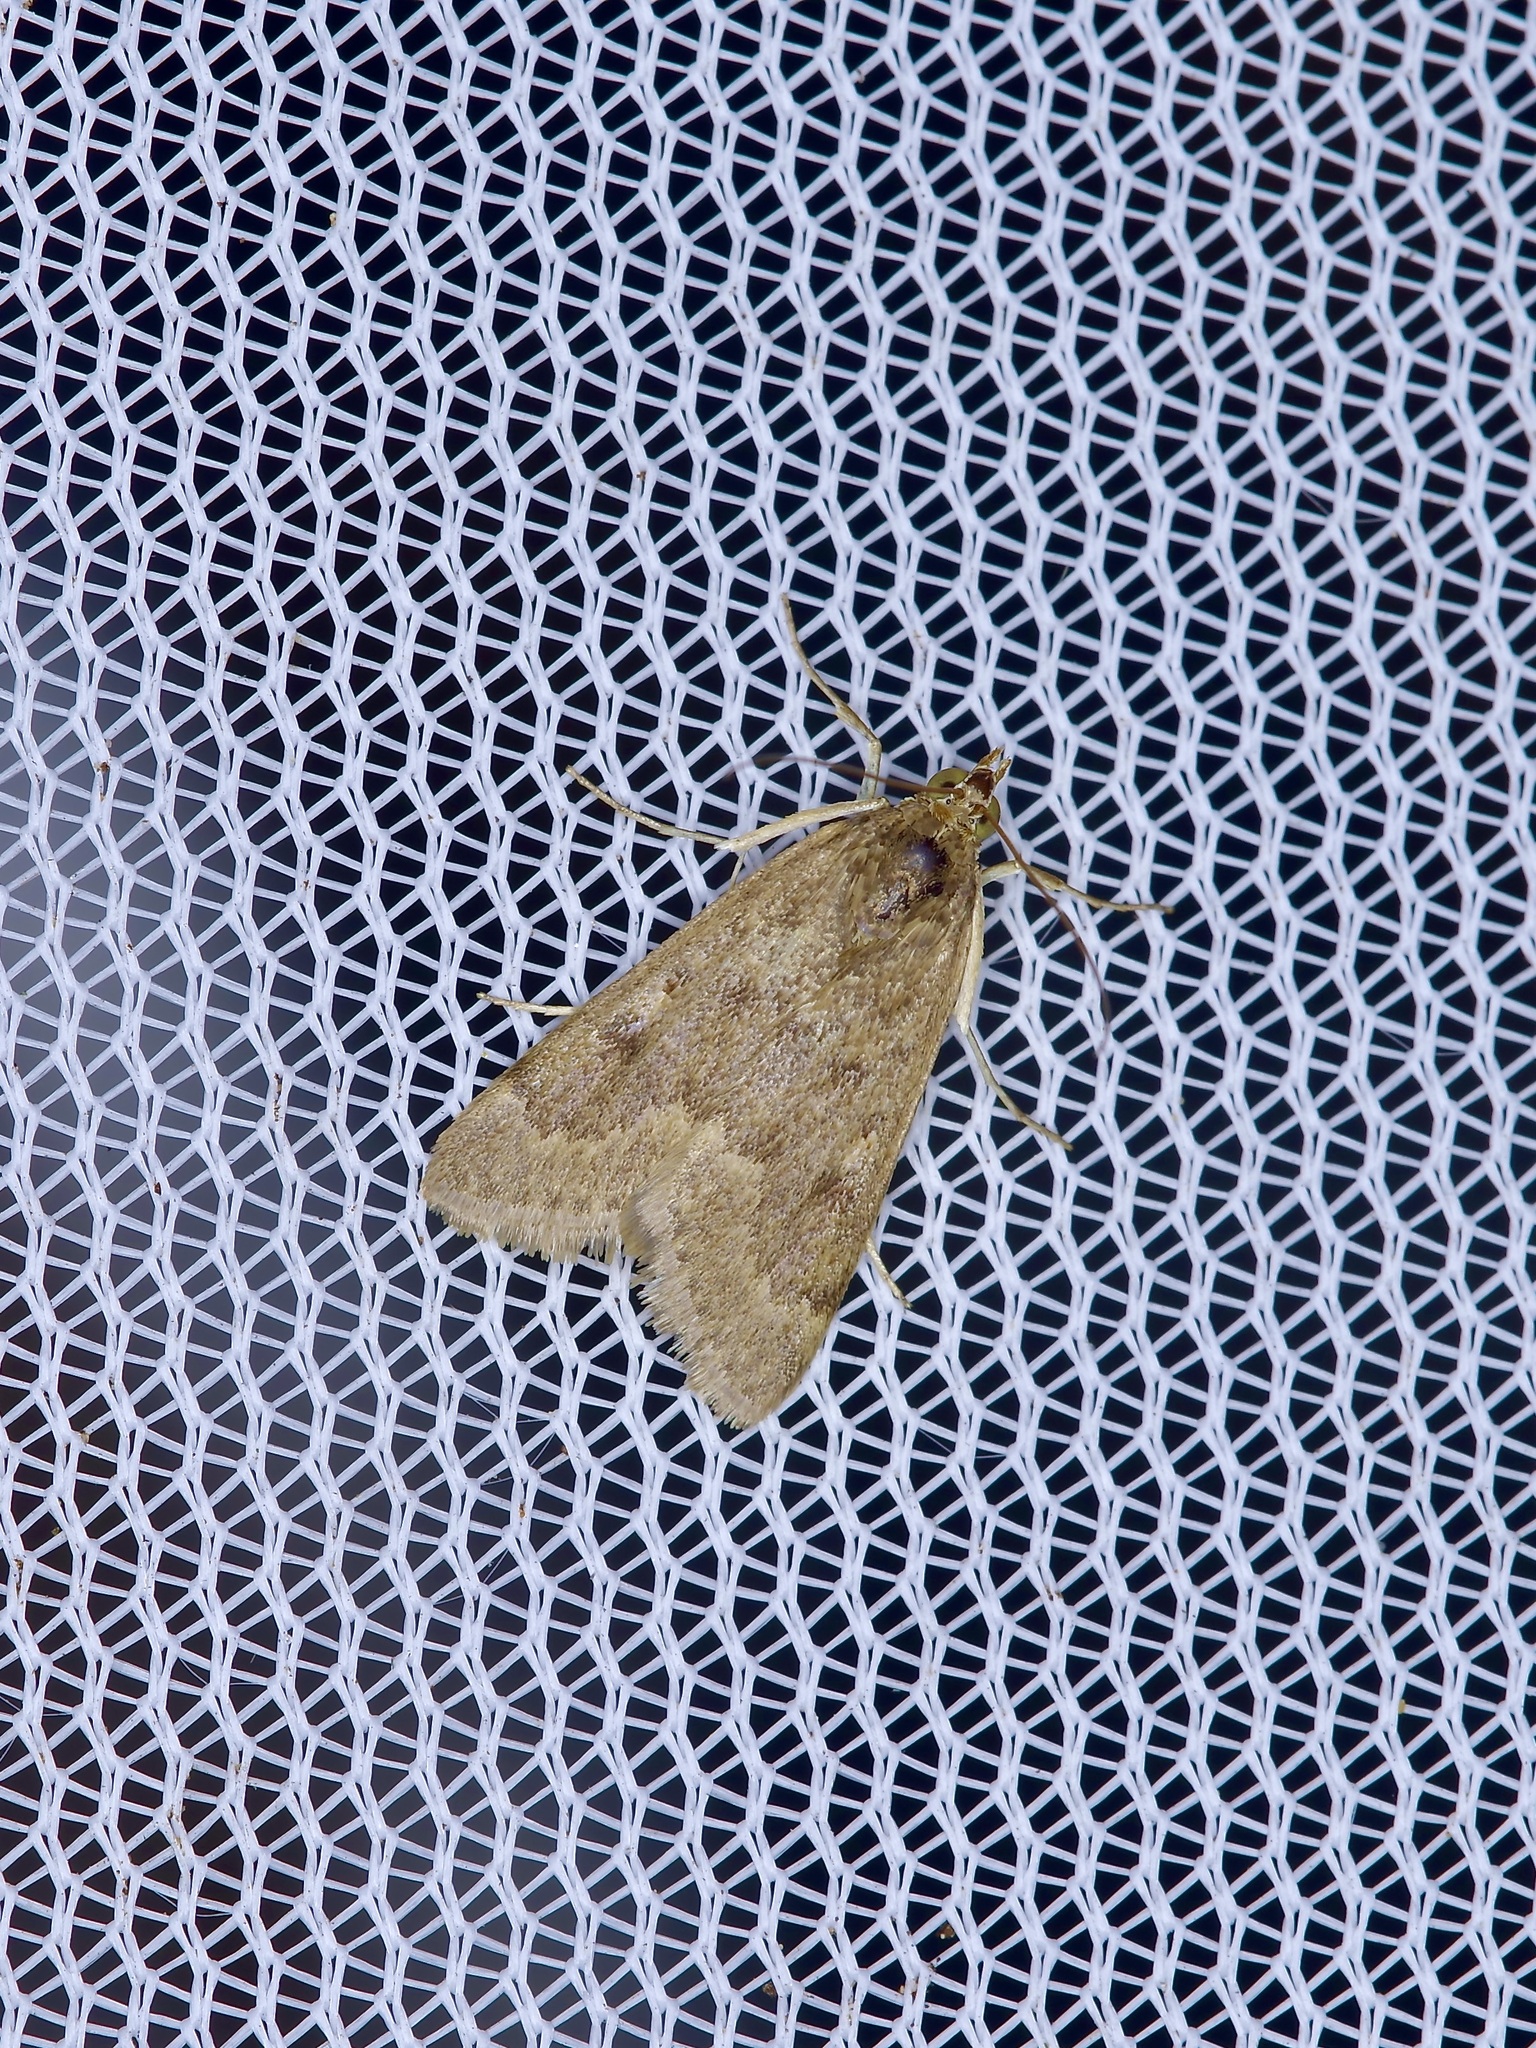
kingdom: Animalia
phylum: Arthropoda
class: Insecta
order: Lepidoptera
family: Crambidae
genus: Achyra
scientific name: Achyra rantalis
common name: Garden webworm
